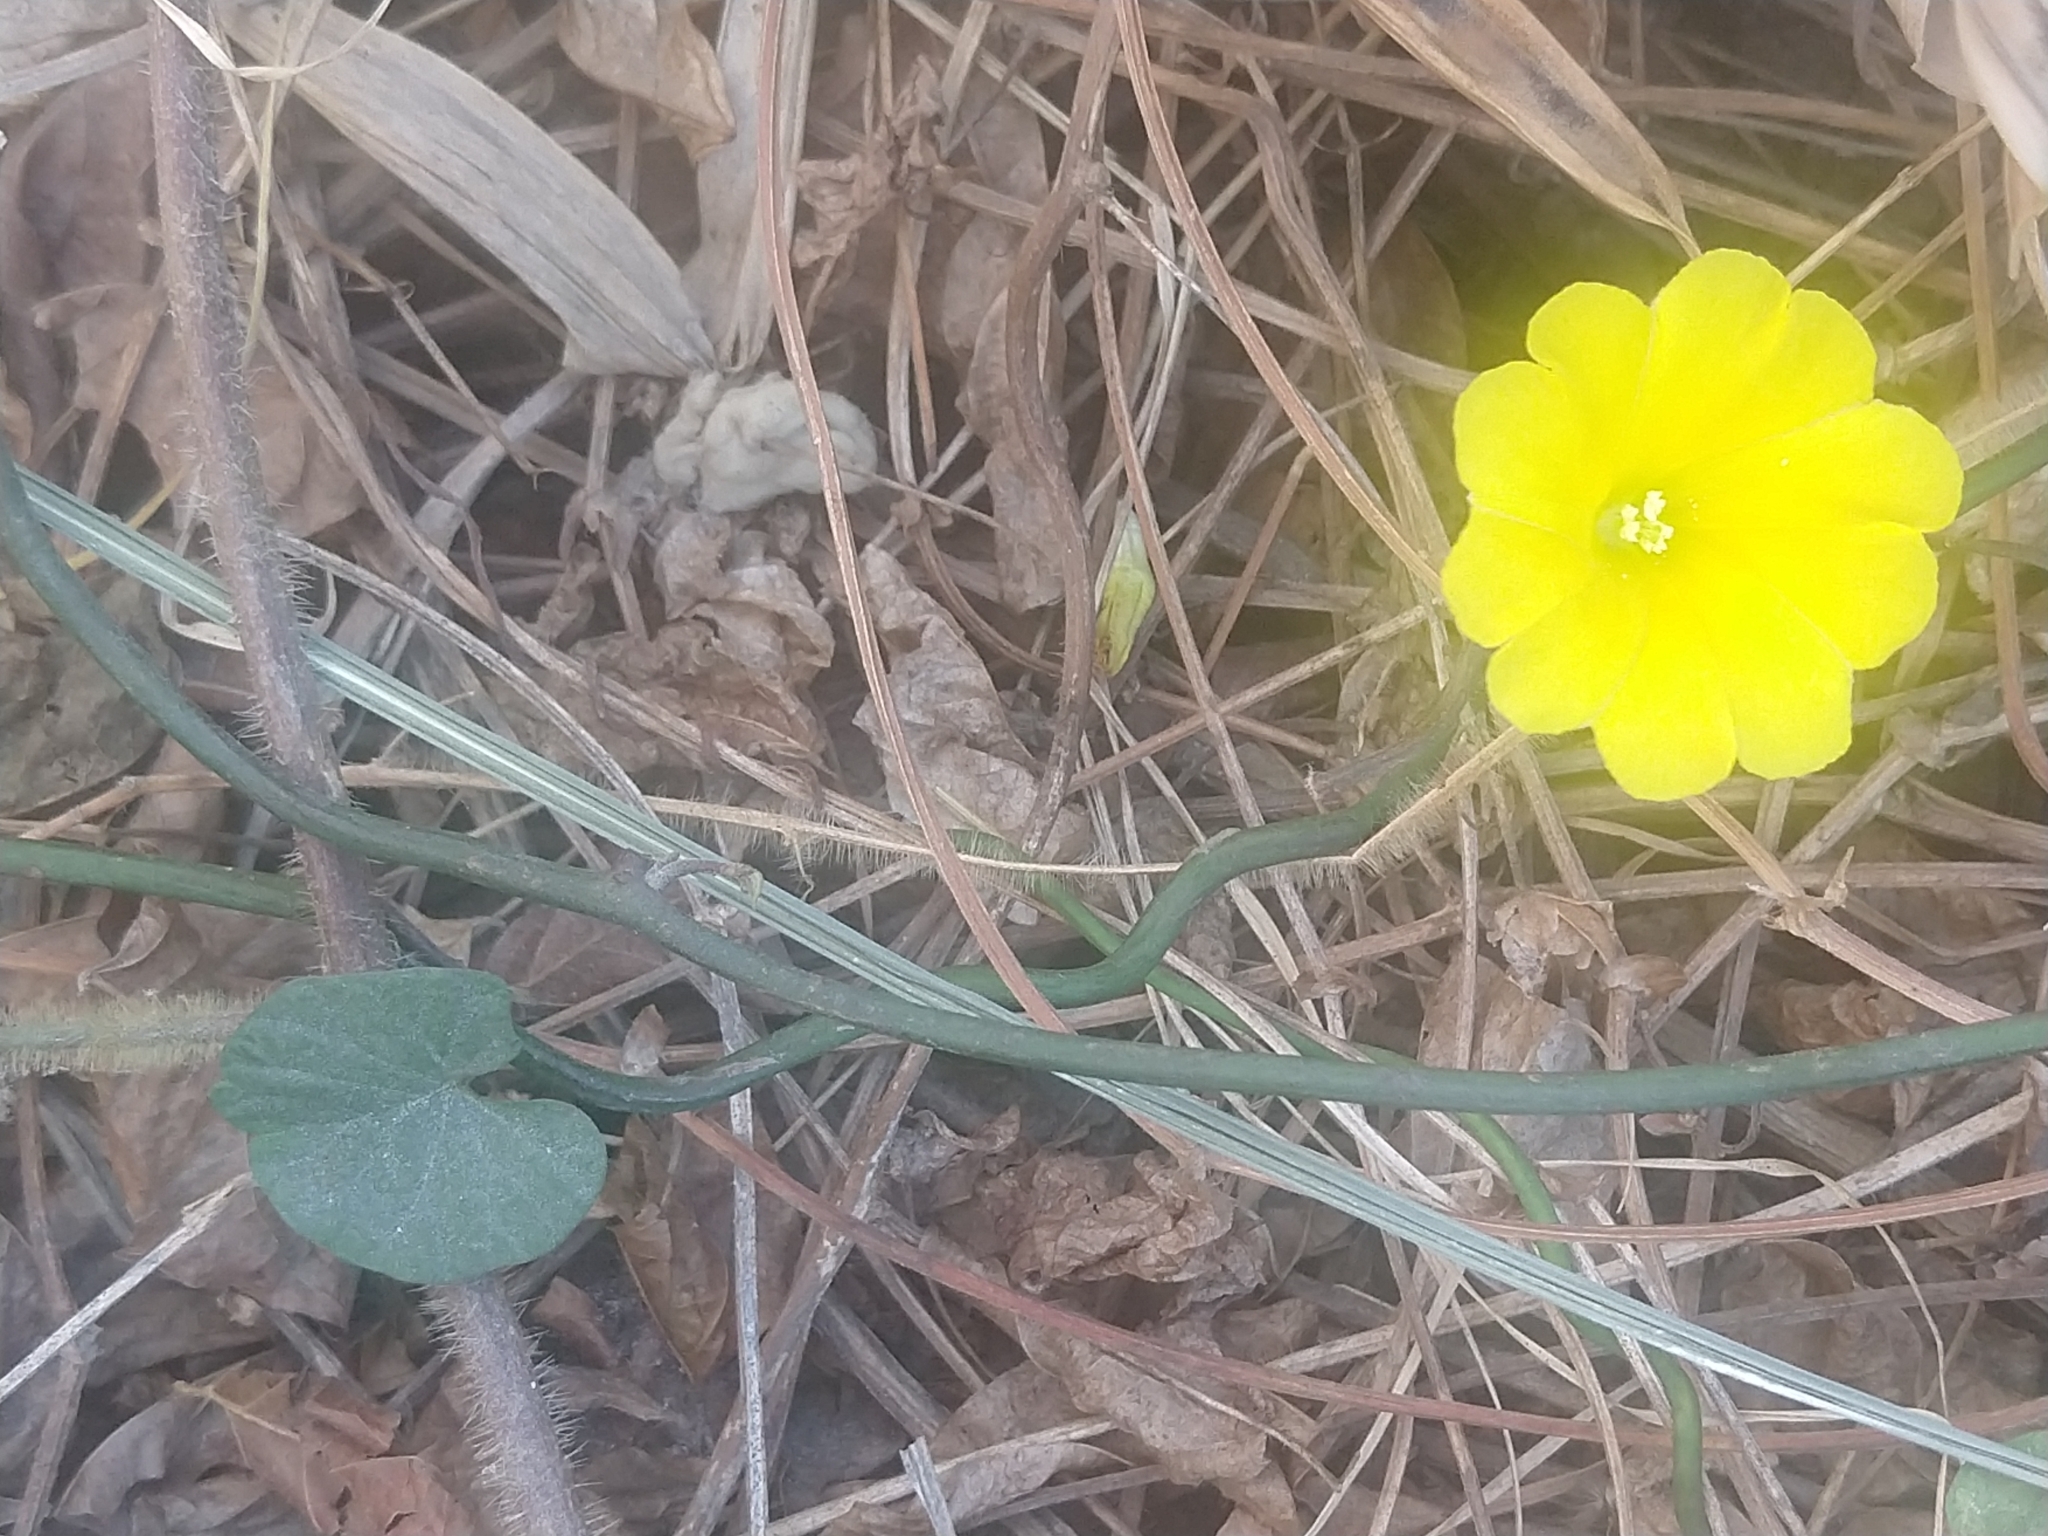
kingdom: Plantae
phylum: Tracheophyta
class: Magnoliopsida
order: Solanales
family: Convolvulaceae
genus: Camonea
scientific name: Camonea umbellata
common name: Hogvine
